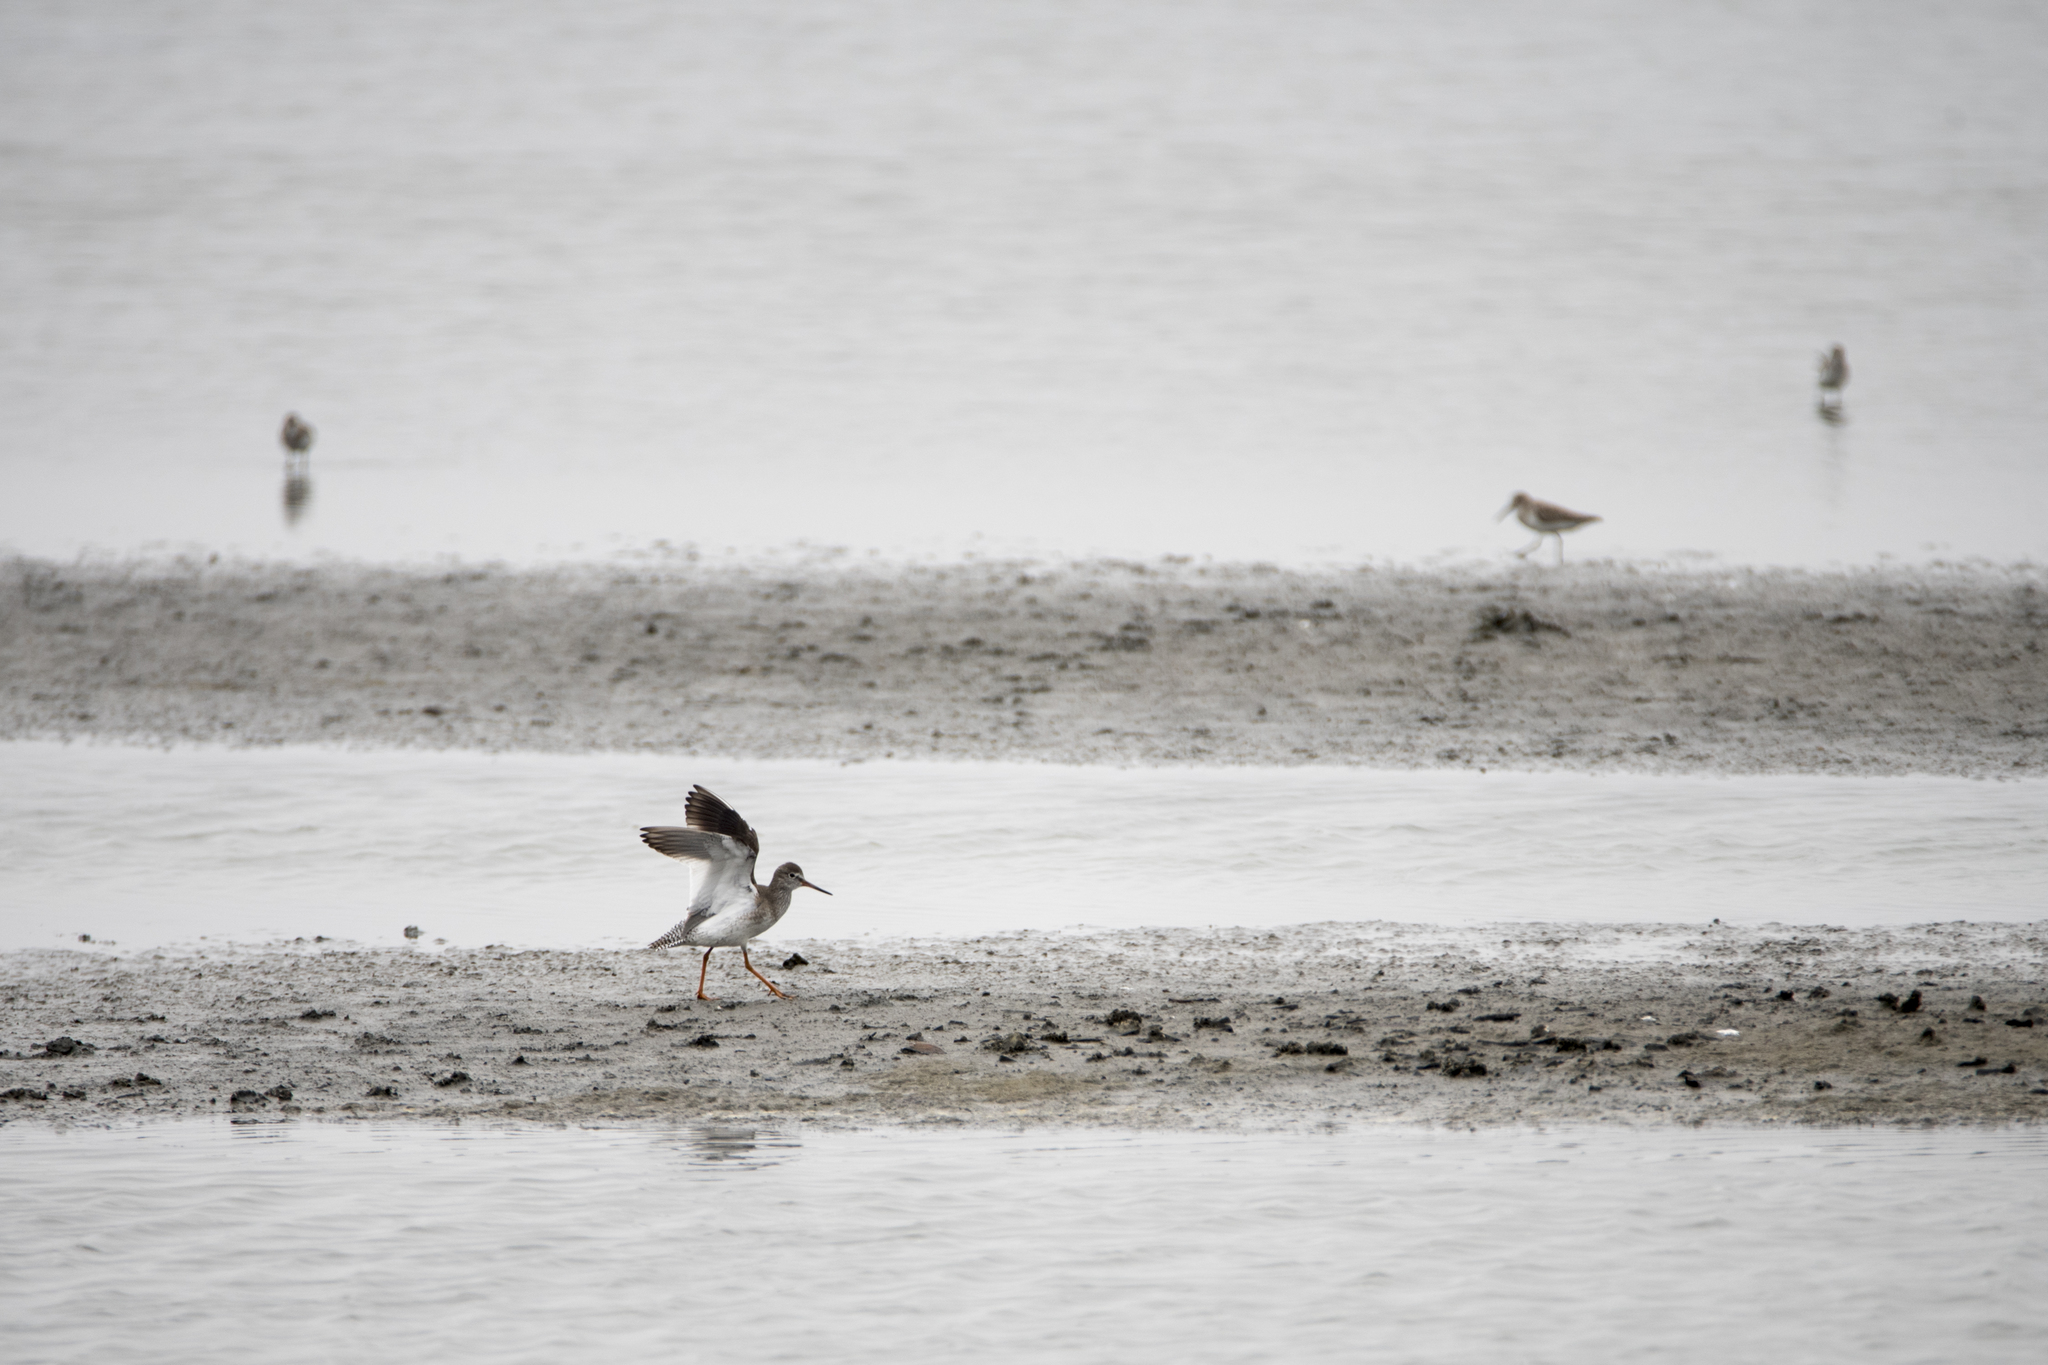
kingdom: Animalia
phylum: Chordata
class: Aves
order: Charadriiformes
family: Scolopacidae
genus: Tringa
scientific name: Tringa totanus
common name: Common redshank
